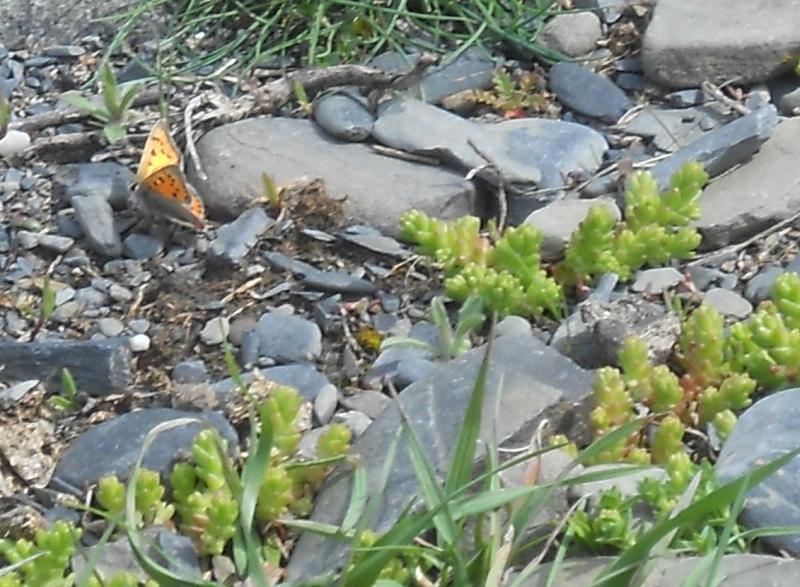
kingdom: Plantae
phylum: Tracheophyta
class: Magnoliopsida
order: Saxifragales
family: Crassulaceae
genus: Sedum
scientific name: Sedum acre
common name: Biting stonecrop
